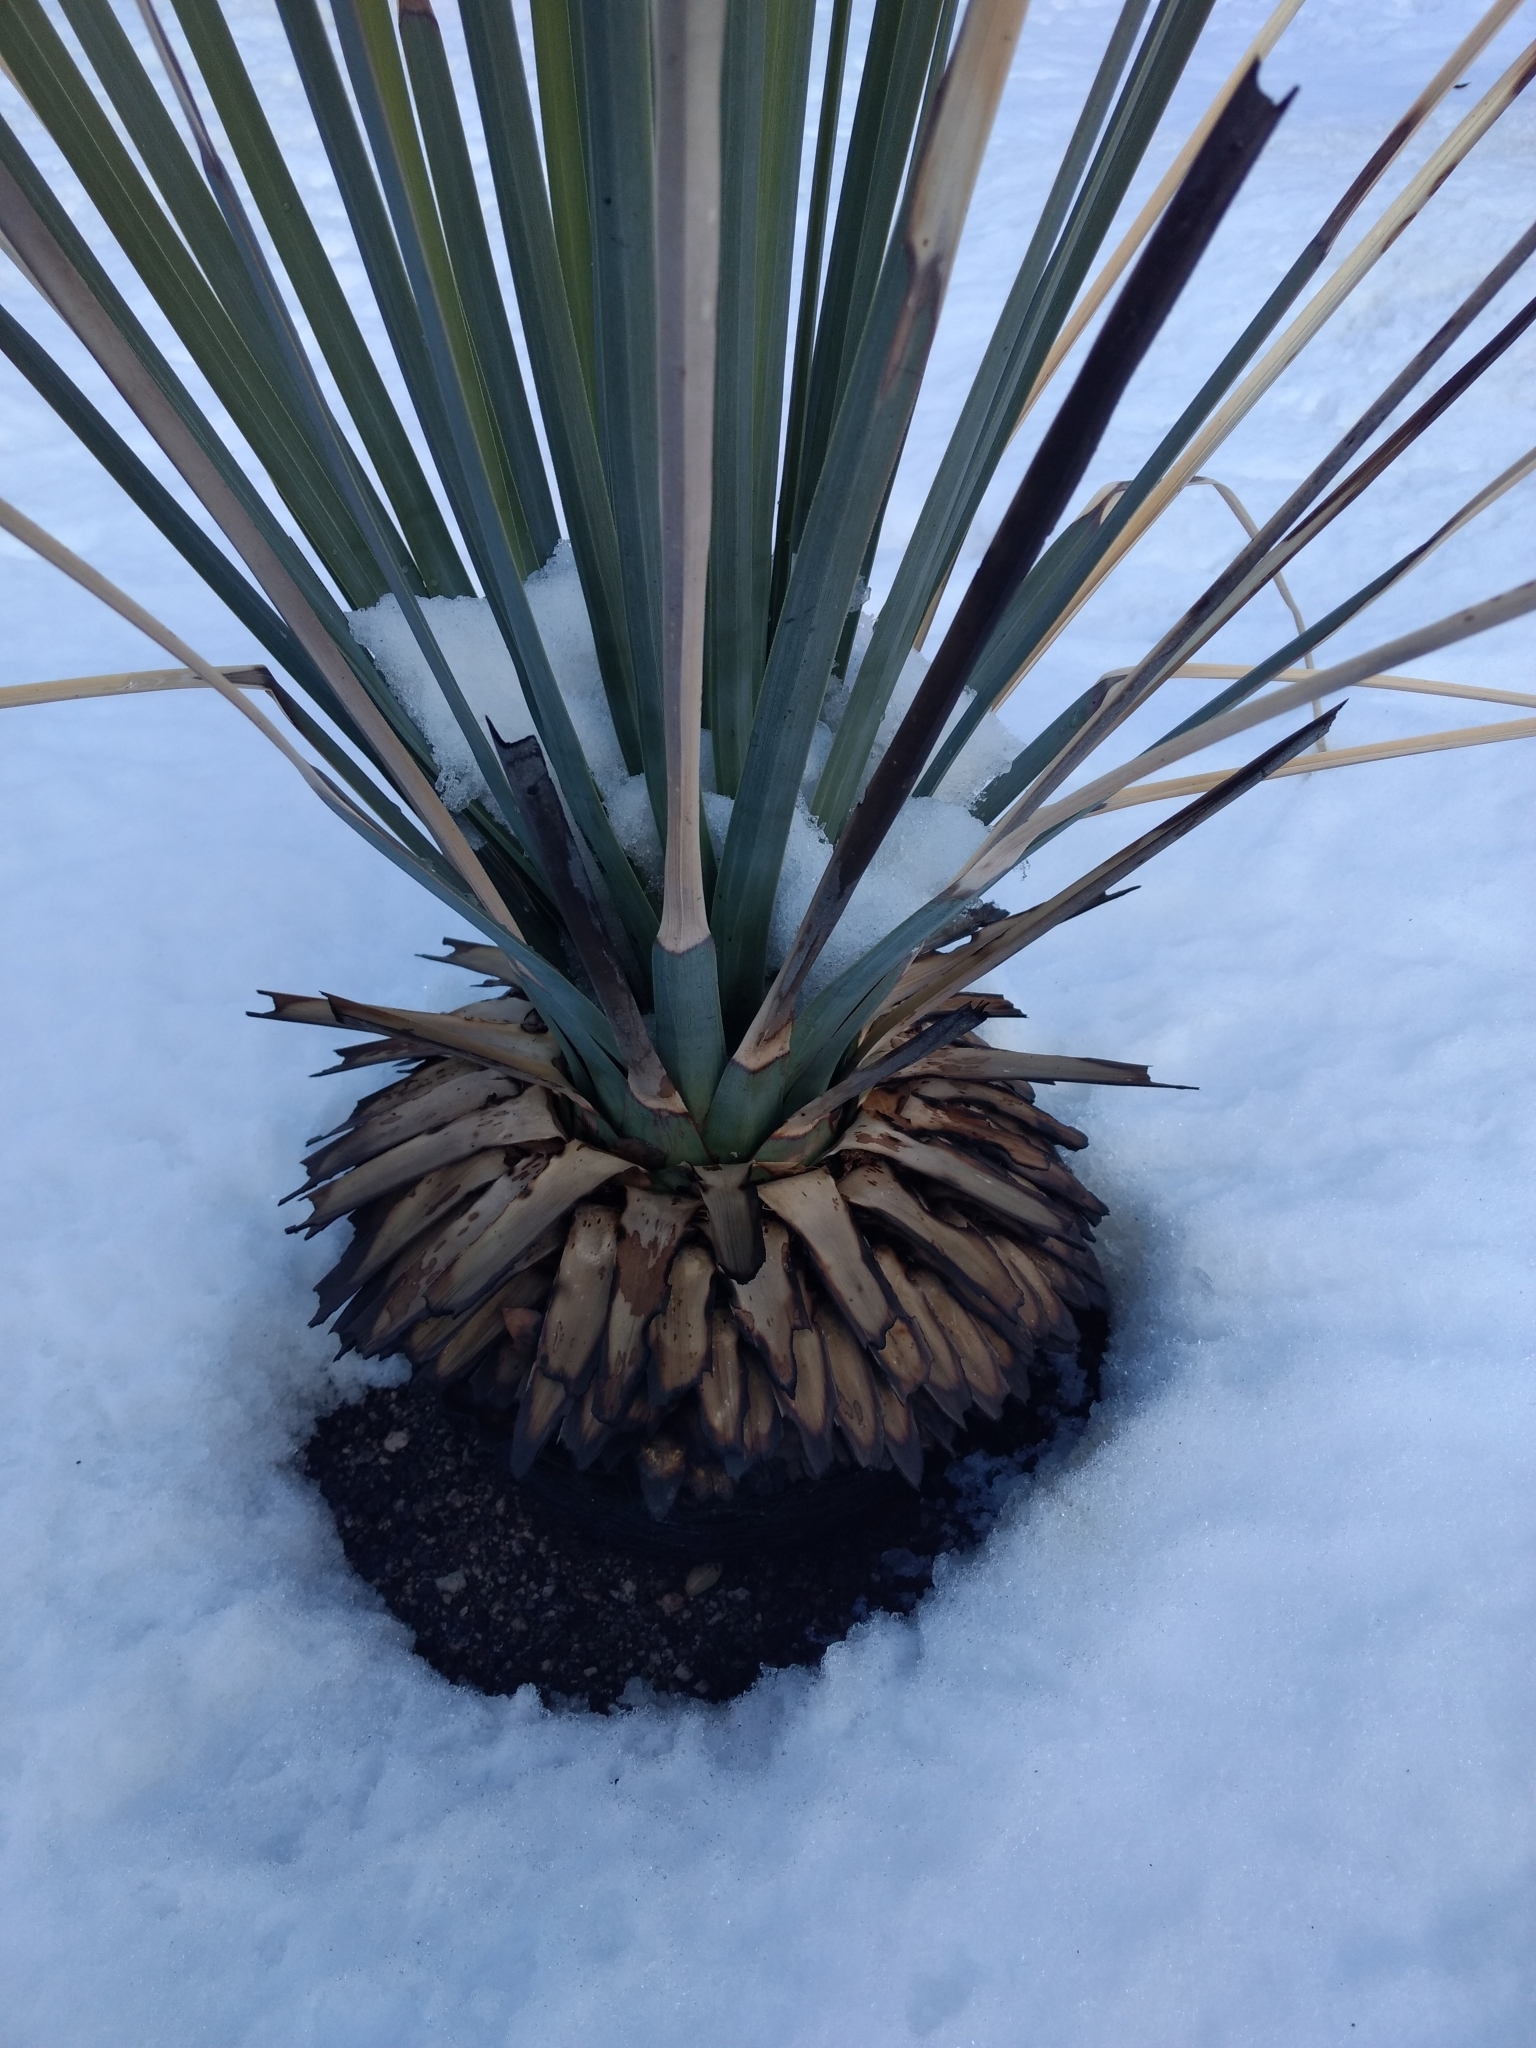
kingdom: Plantae
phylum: Tracheophyta
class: Liliopsida
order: Asparagales
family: Asparagaceae
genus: Hesperoyucca
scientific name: Hesperoyucca whipplei
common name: Our lord's-candle
